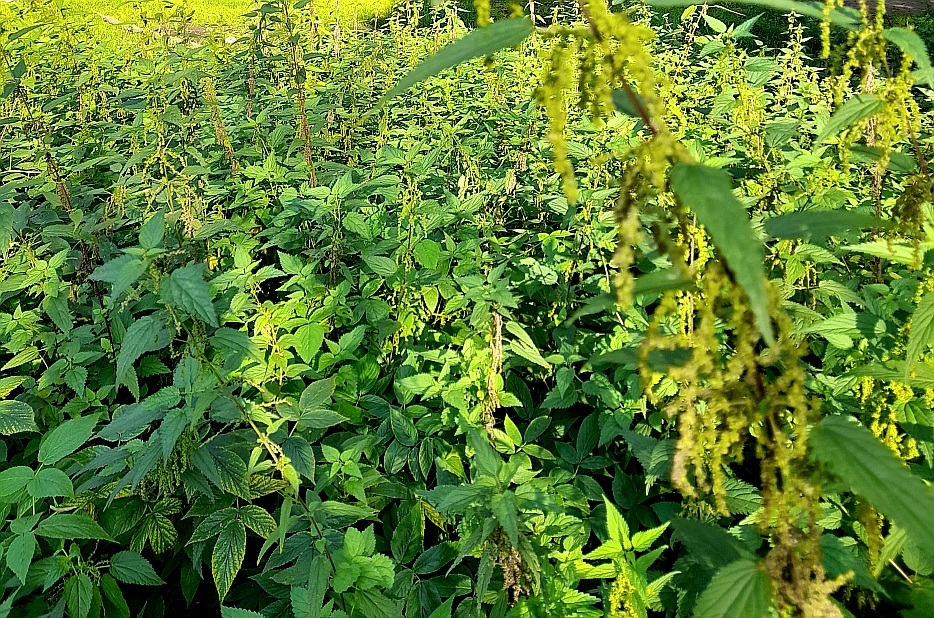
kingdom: Plantae
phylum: Tracheophyta
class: Magnoliopsida
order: Rosales
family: Urticaceae
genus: Urtica
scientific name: Urtica dioica
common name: Common nettle
